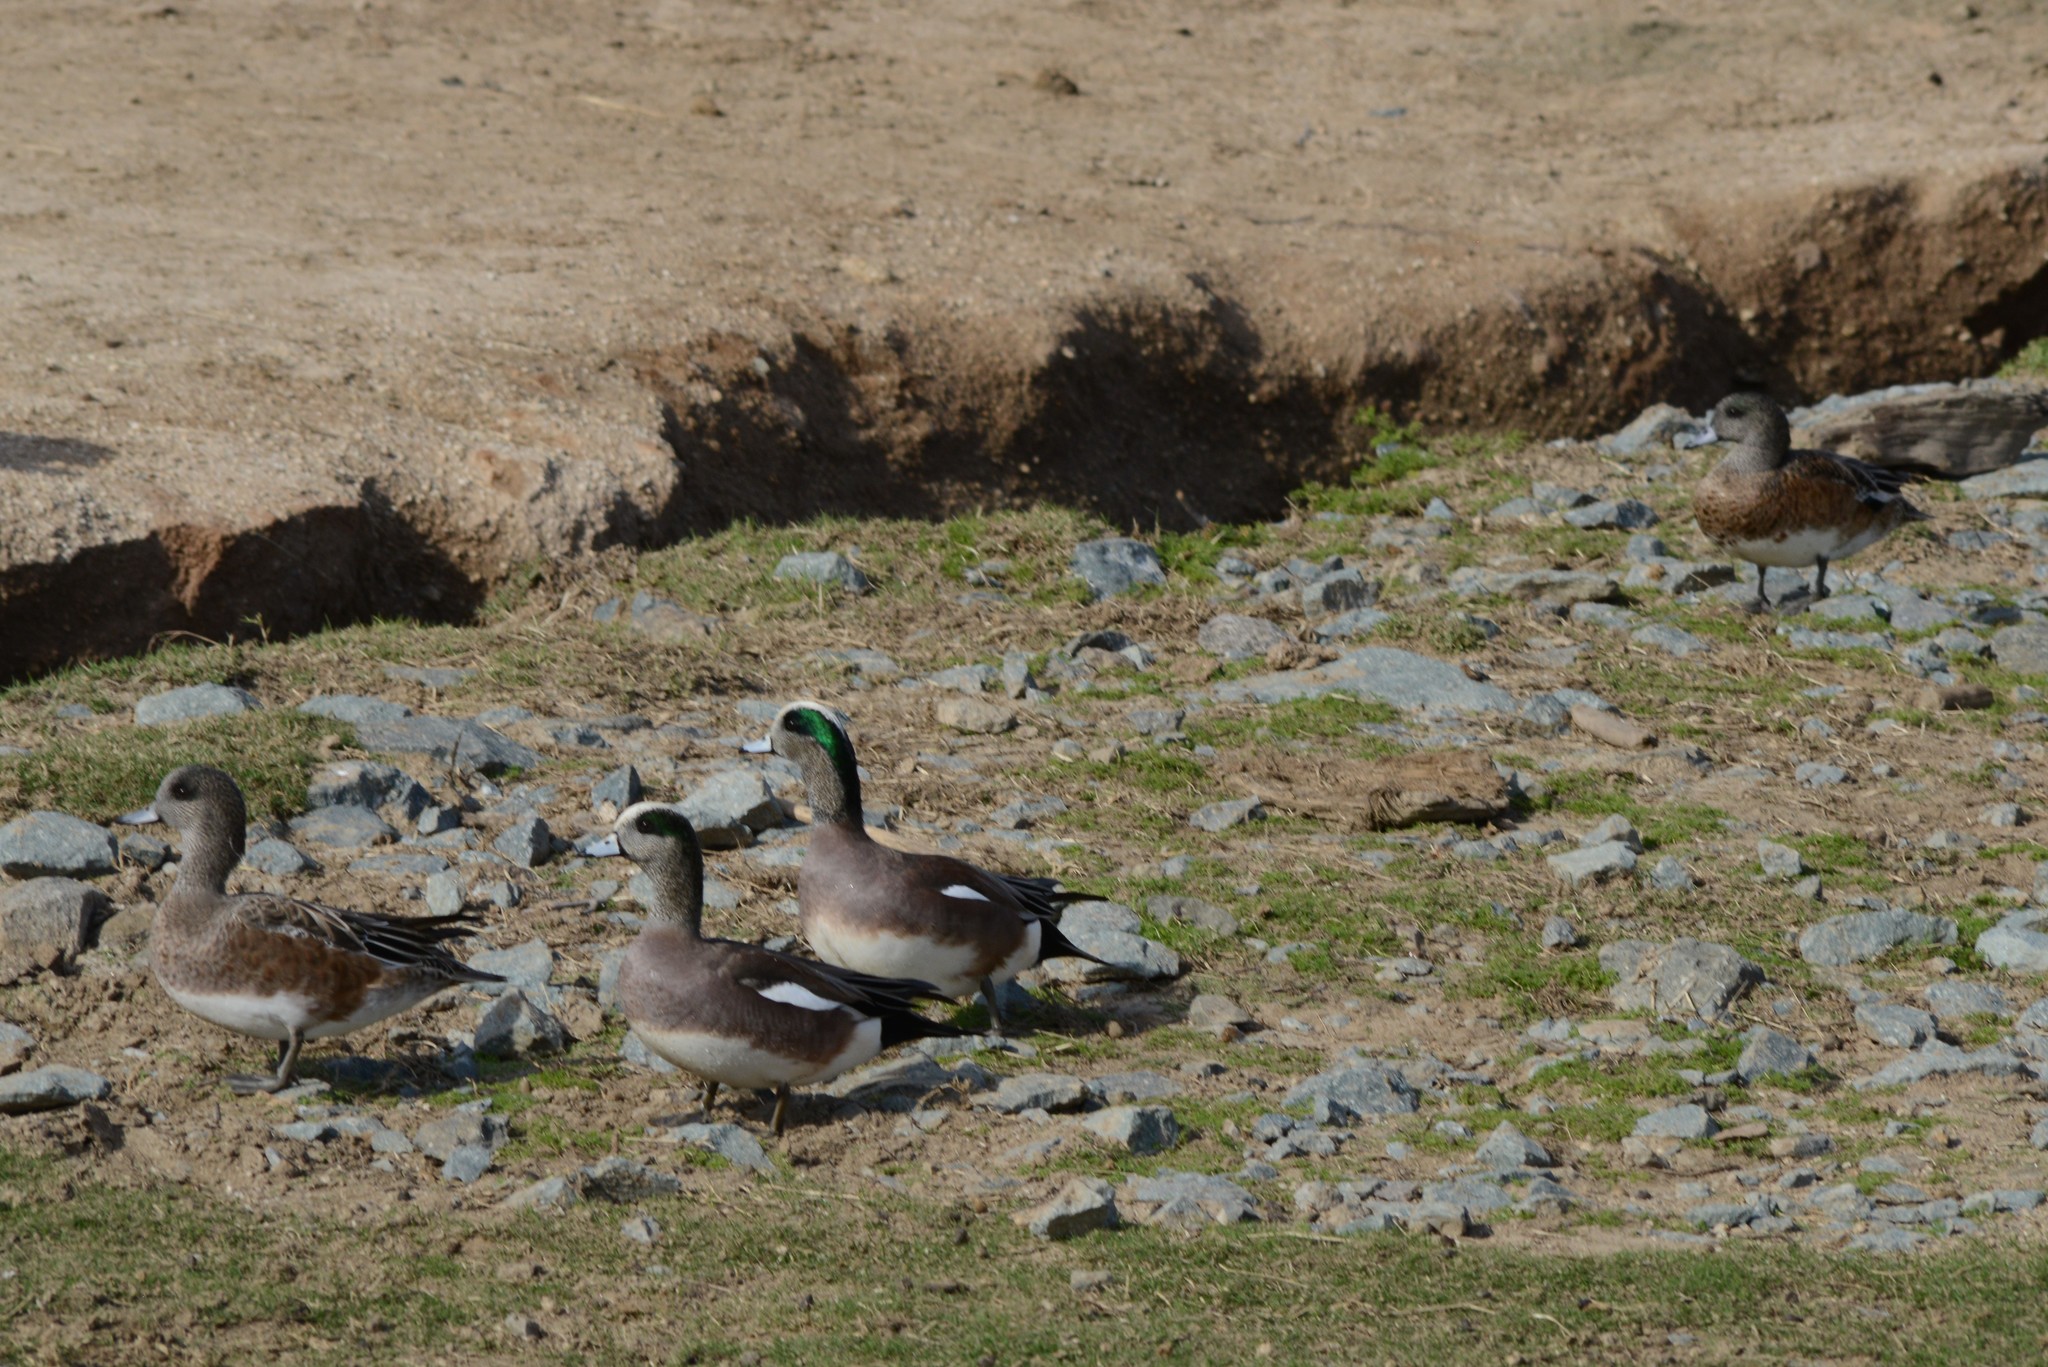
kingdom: Animalia
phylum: Chordata
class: Aves
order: Anseriformes
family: Anatidae
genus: Mareca
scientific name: Mareca americana
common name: American wigeon
